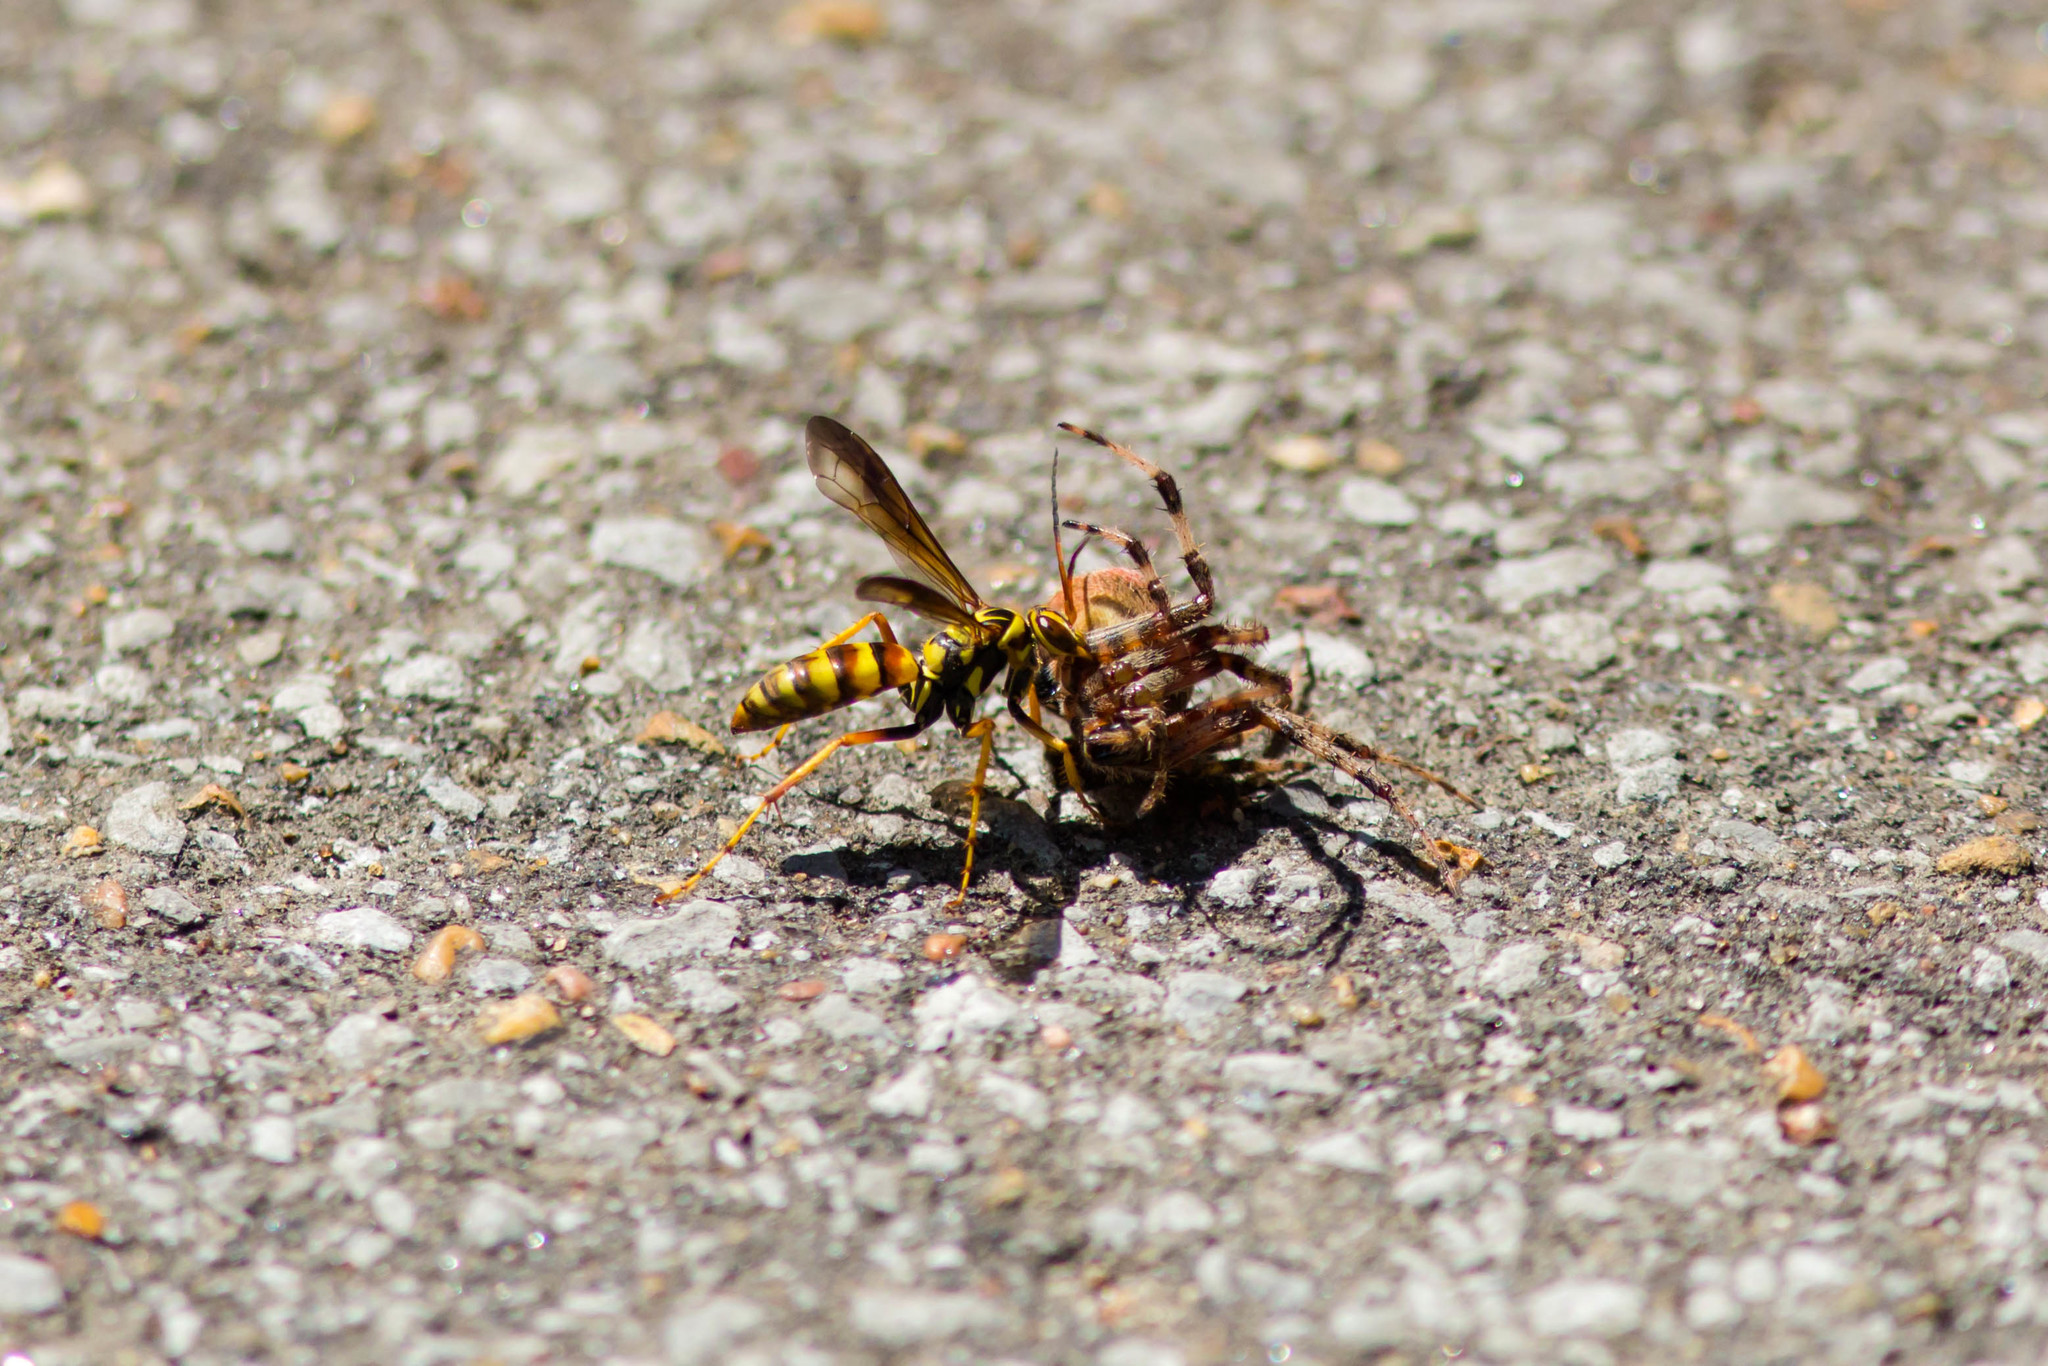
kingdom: Animalia
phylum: Arthropoda
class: Insecta
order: Hymenoptera
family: Pompilidae
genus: Poecilopompilus
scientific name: Poecilopompilus interruptus
